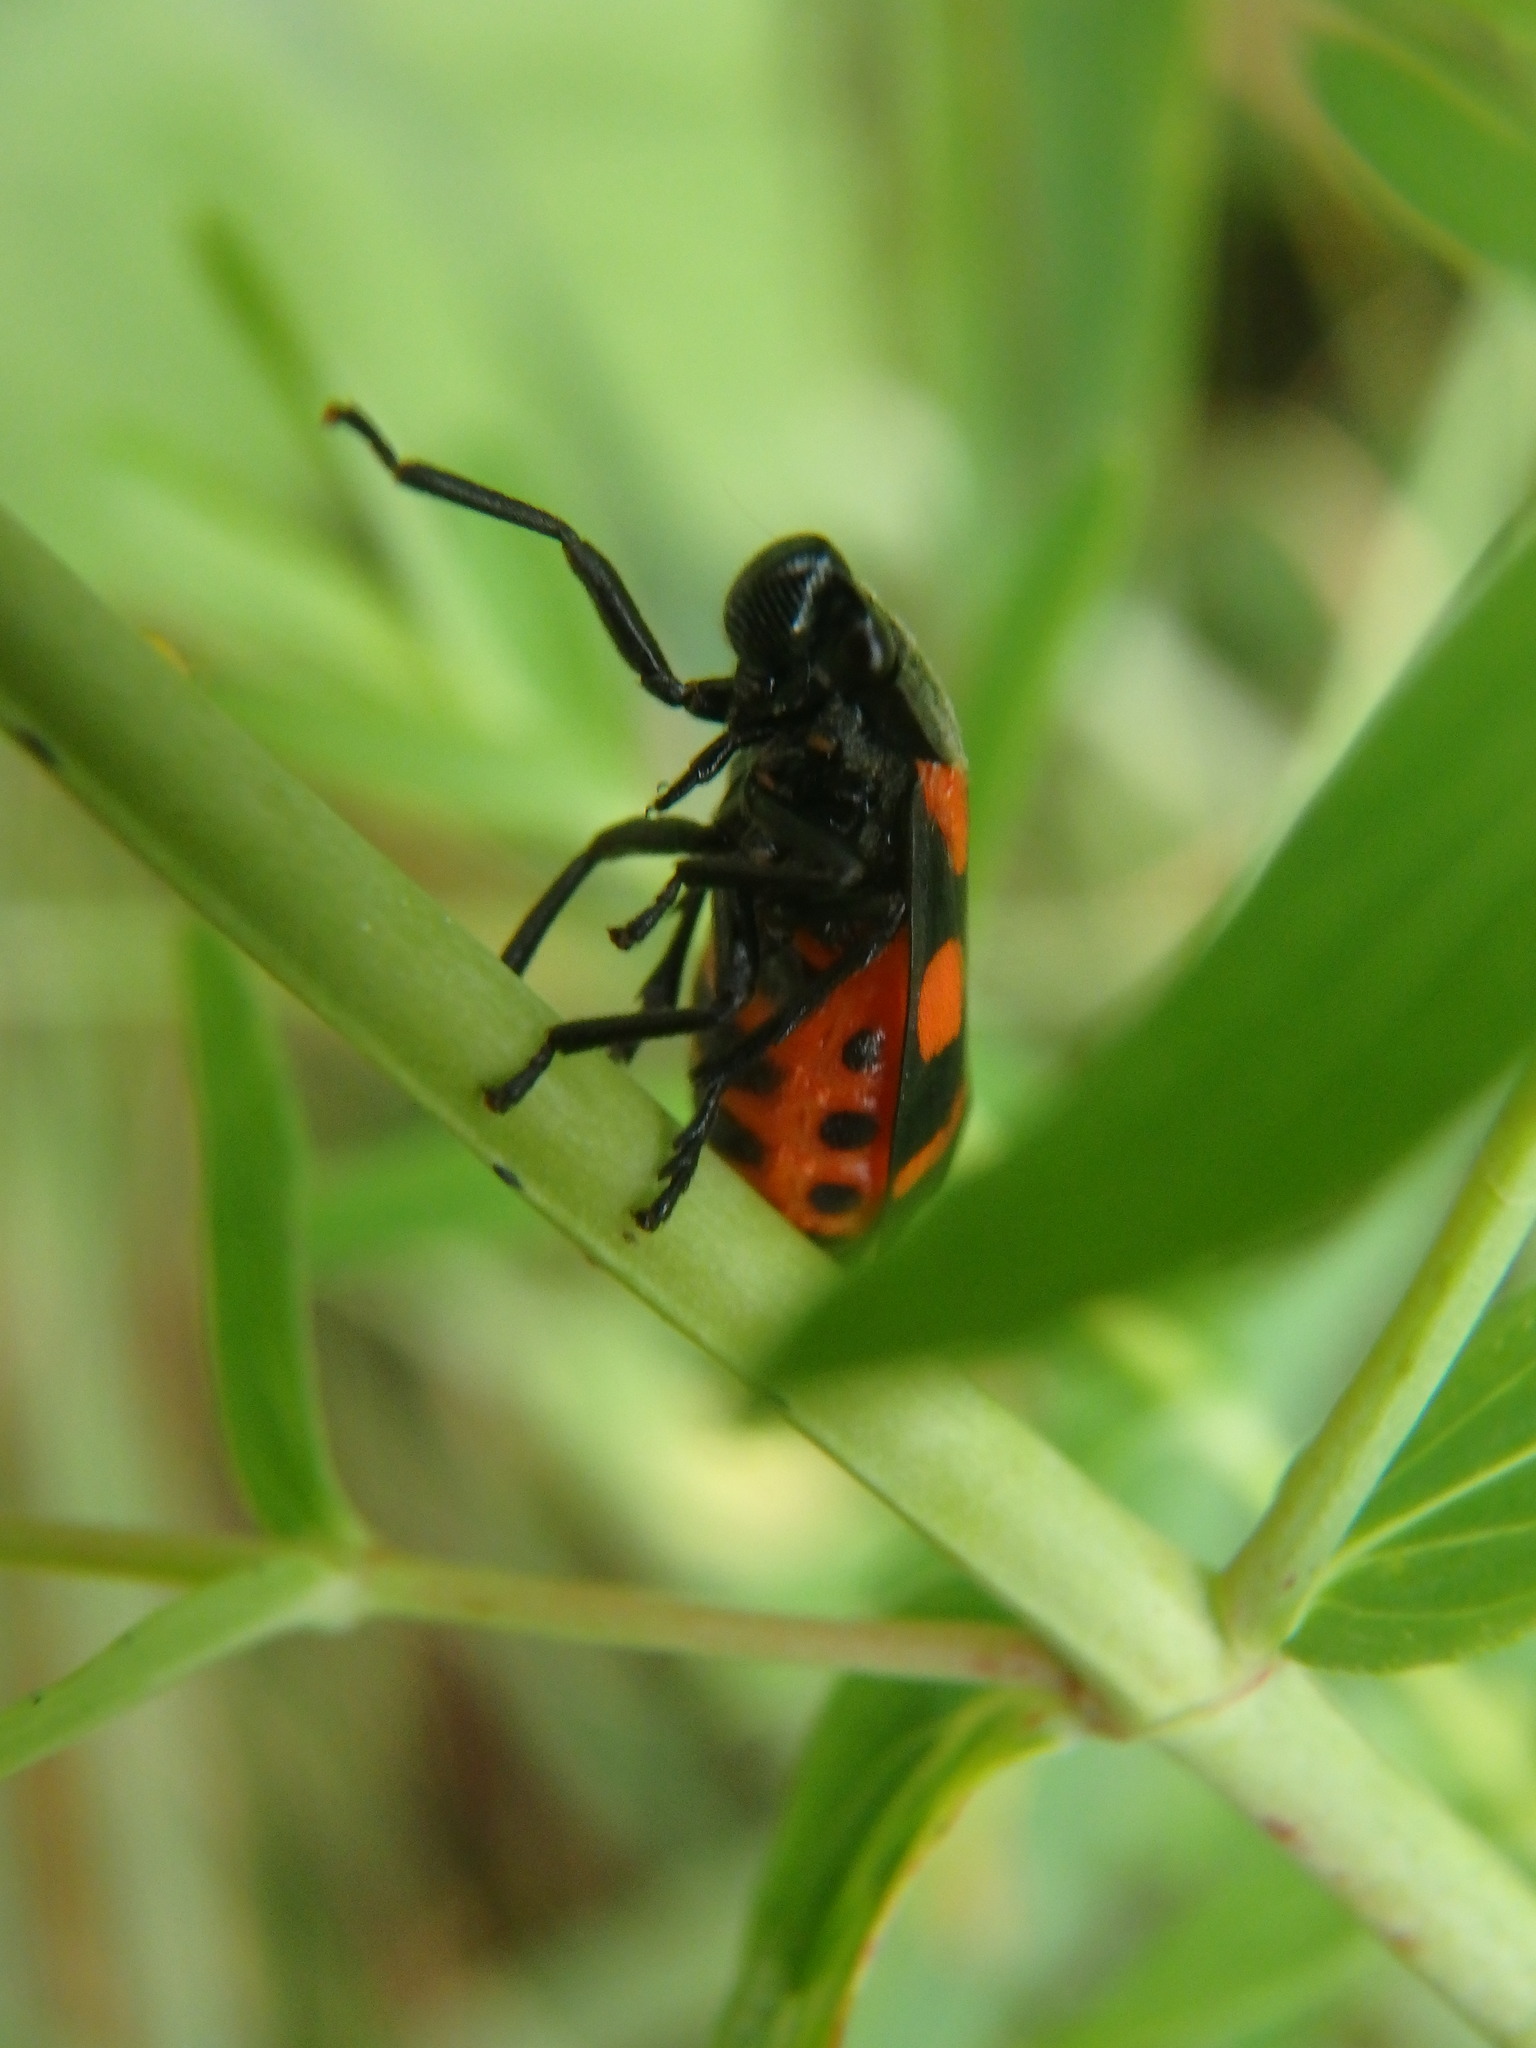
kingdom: Animalia
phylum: Arthropoda
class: Insecta
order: Hemiptera
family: Cercopidae
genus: Cercopis
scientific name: Cercopis sanguinolenta
